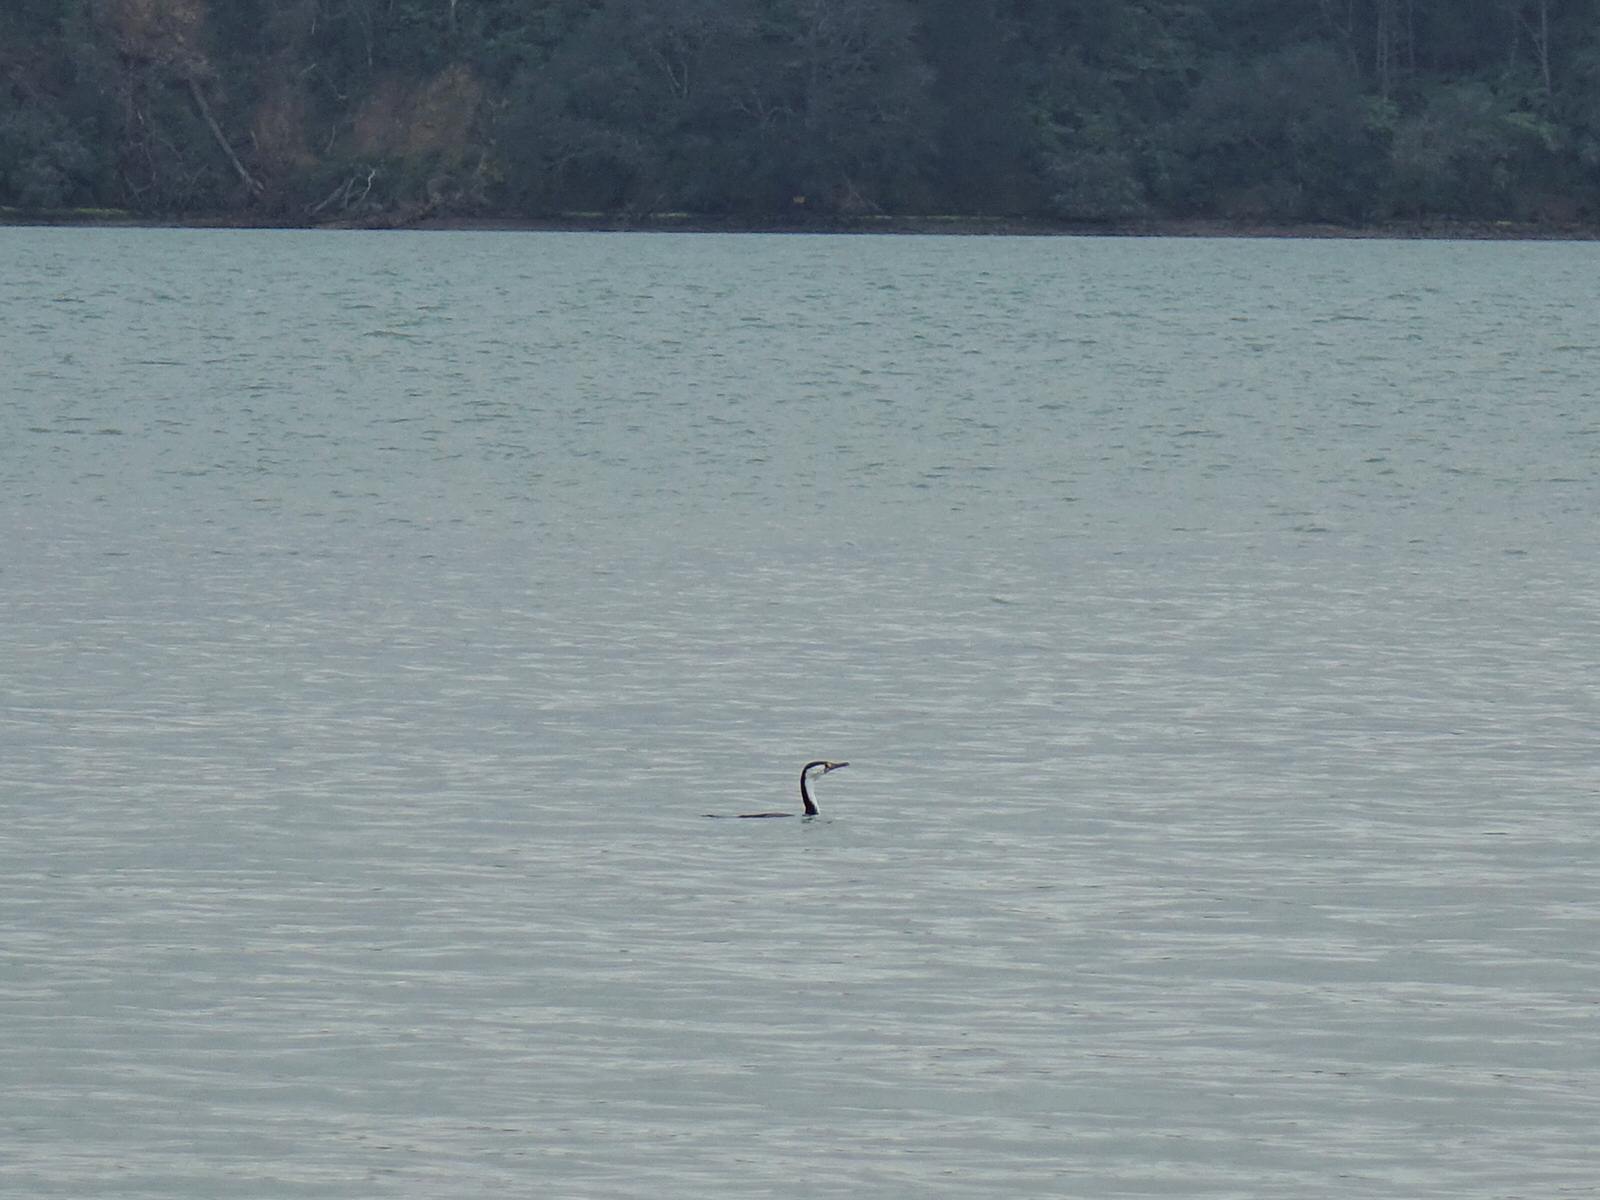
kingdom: Animalia
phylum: Chordata
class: Aves
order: Suliformes
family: Phalacrocoracidae
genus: Phalacrocorax
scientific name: Phalacrocorax varius
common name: Pied cormorant
